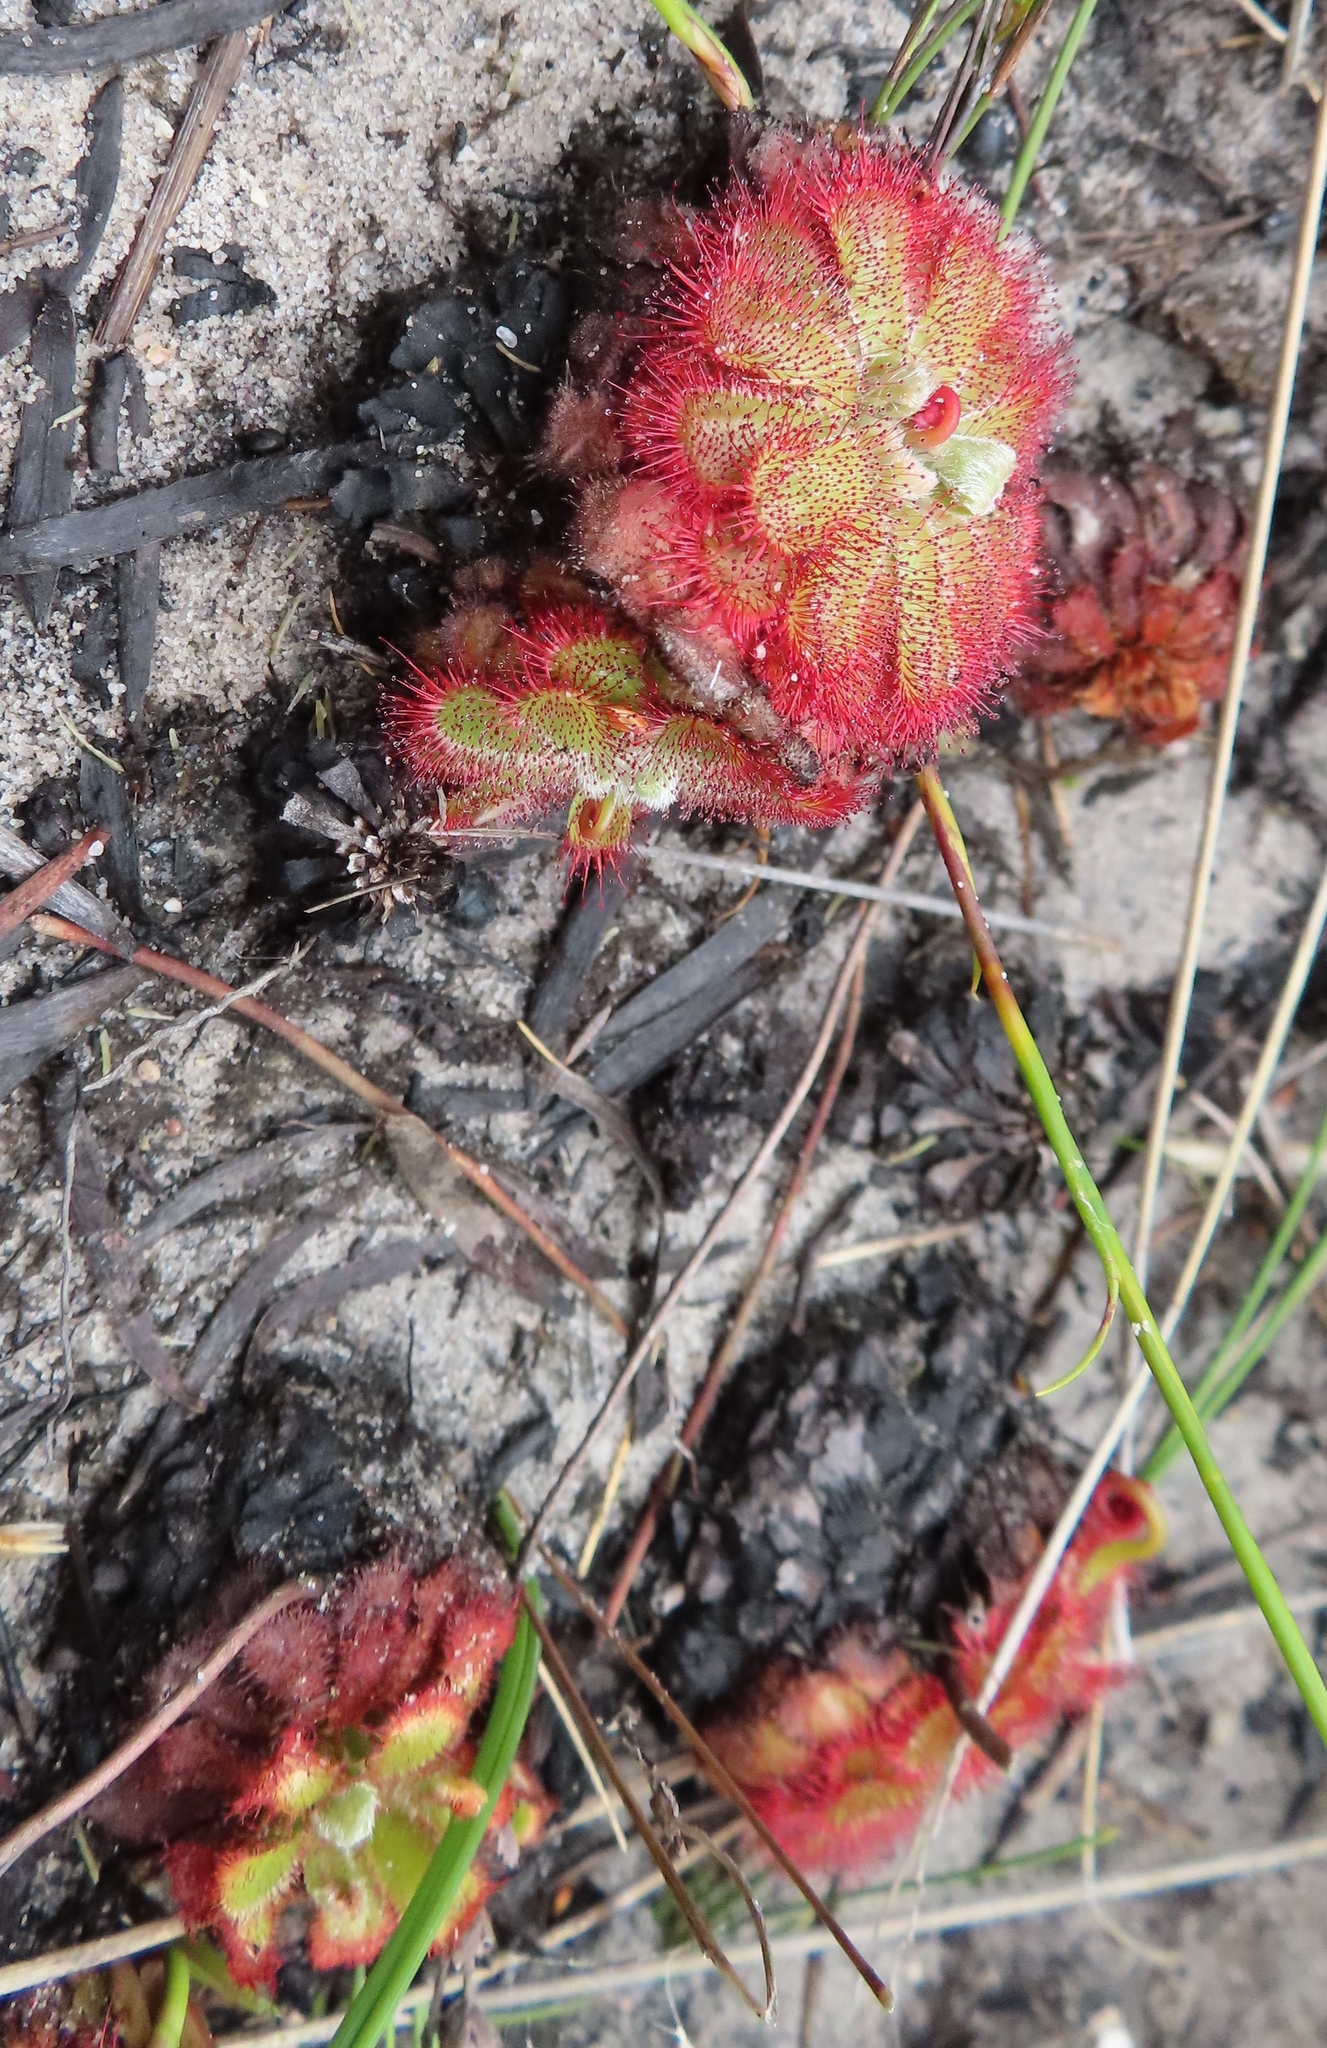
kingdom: Plantae
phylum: Tracheophyta
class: Magnoliopsida
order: Caryophyllales
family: Droseraceae
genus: Drosera
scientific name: Drosera xerophila
